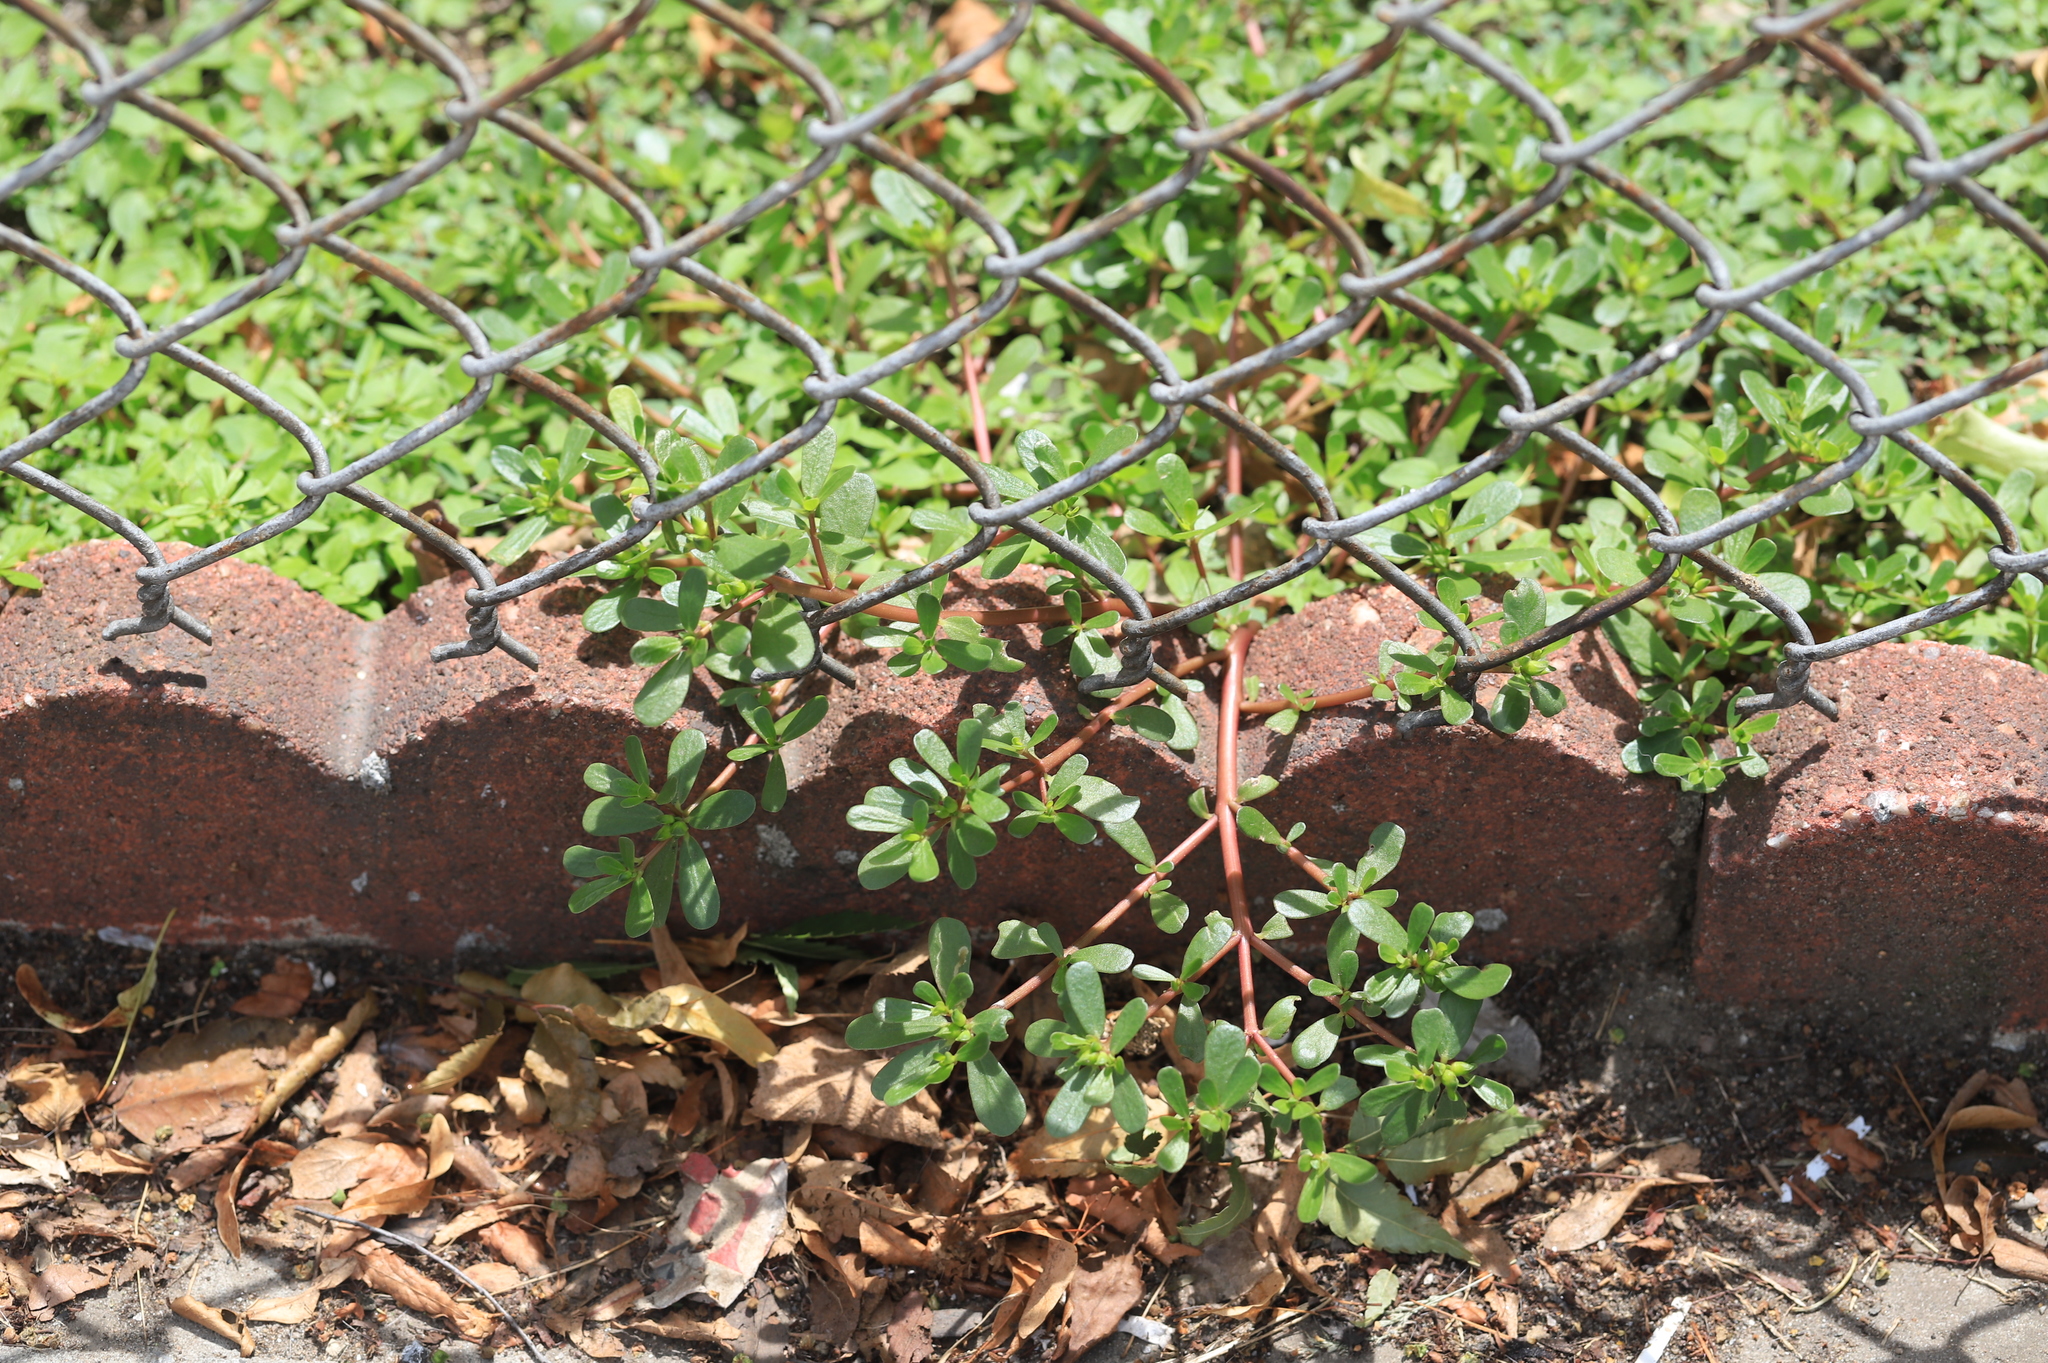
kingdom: Plantae
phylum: Tracheophyta
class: Magnoliopsida
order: Caryophyllales
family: Portulacaceae
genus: Portulaca
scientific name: Portulaca oleracea
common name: Common purslane
